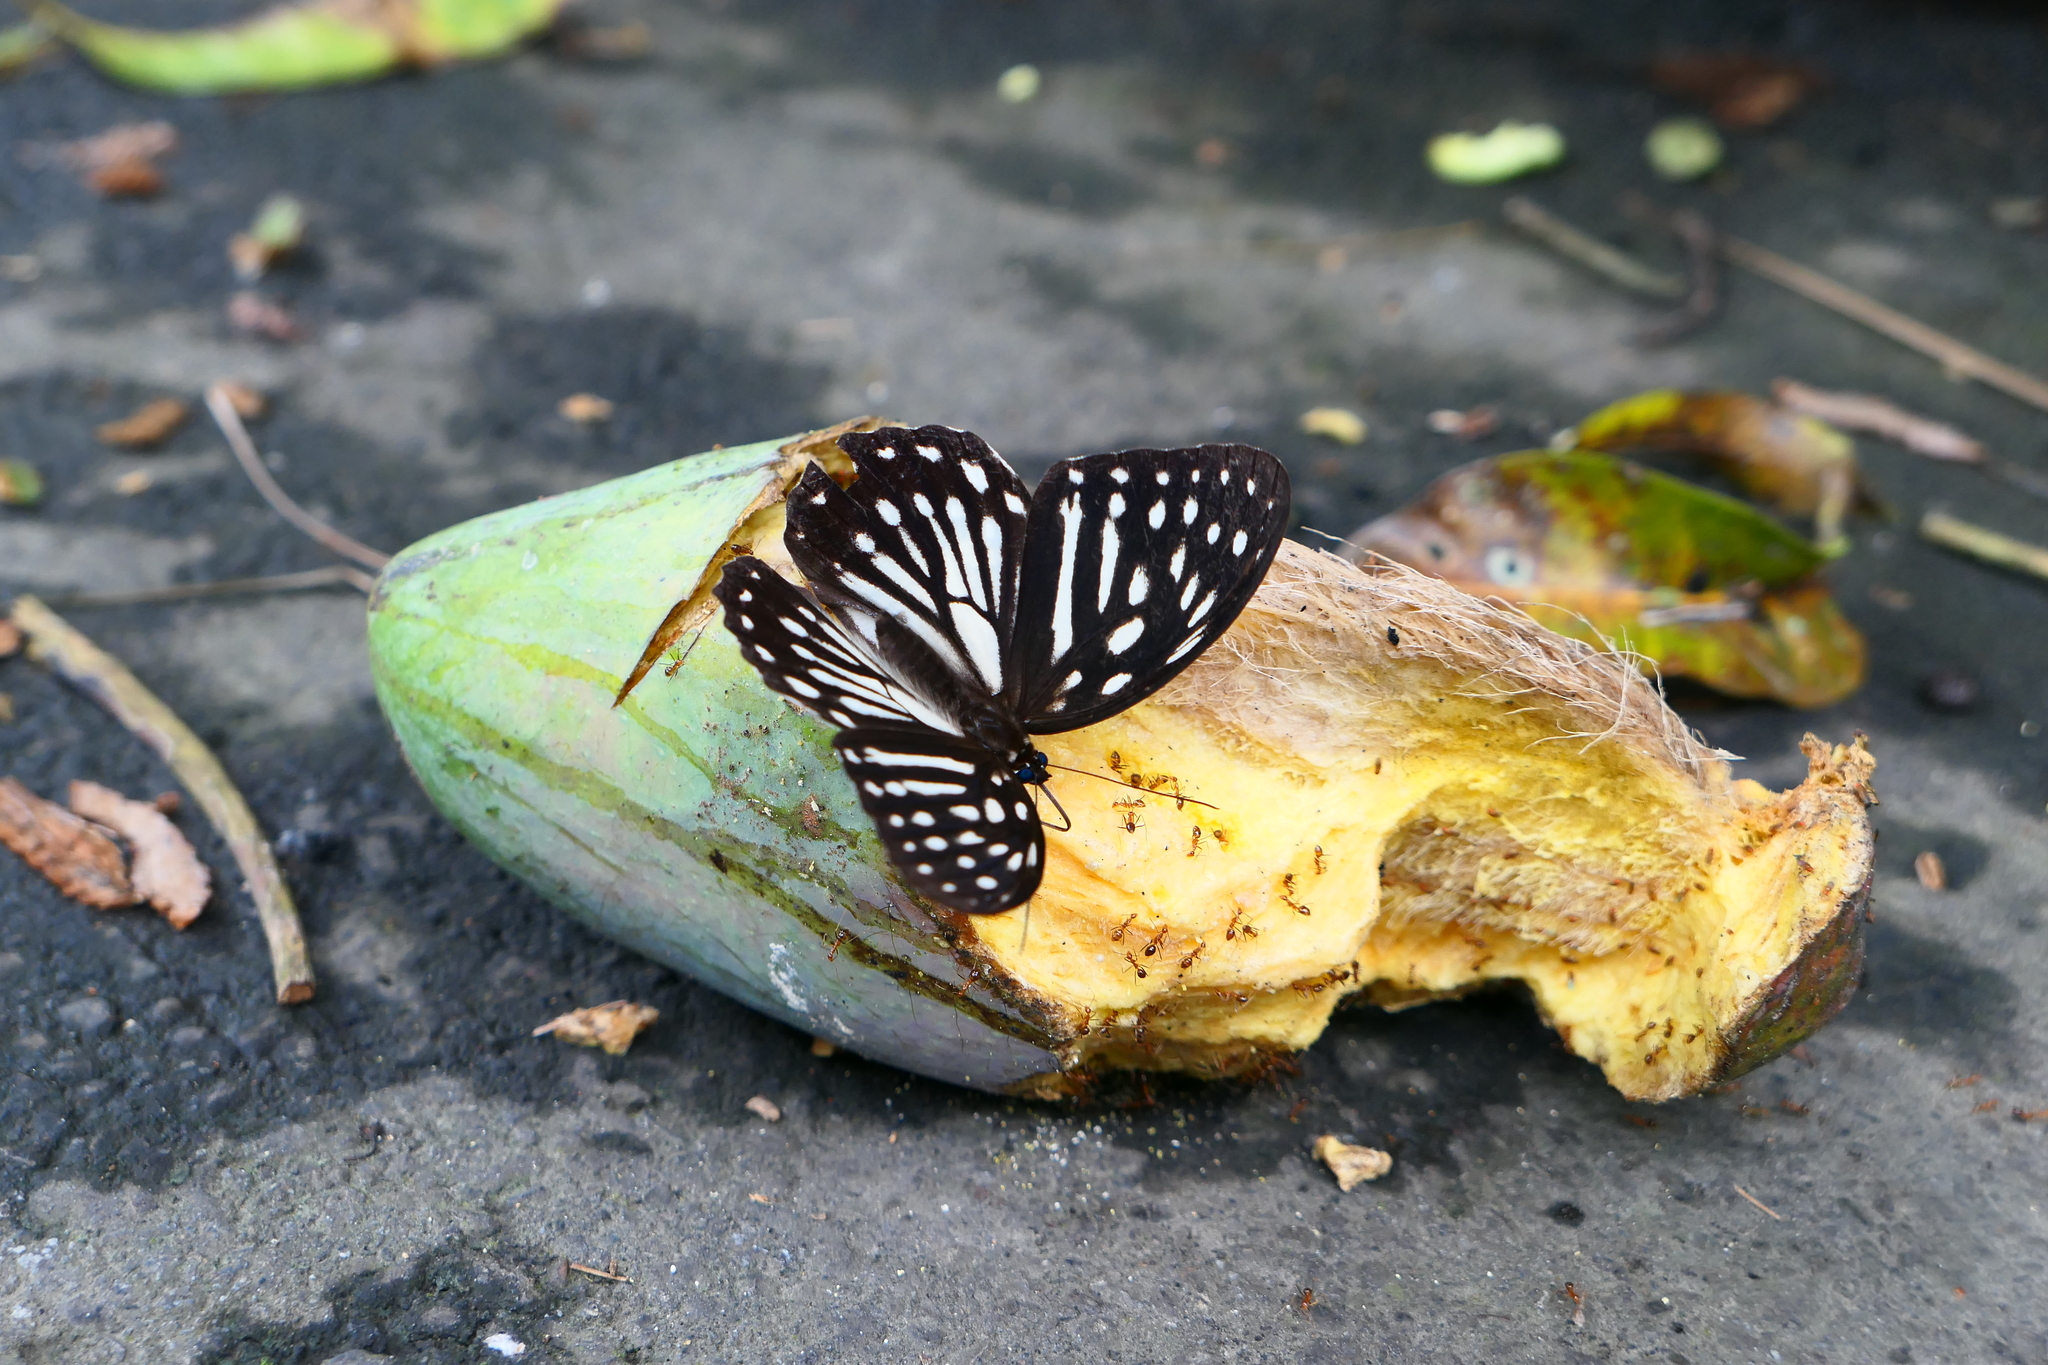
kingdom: Animalia
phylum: Arthropoda
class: Insecta
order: Lepidoptera
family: Nymphalidae
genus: Penthema
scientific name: Penthema formosanum
